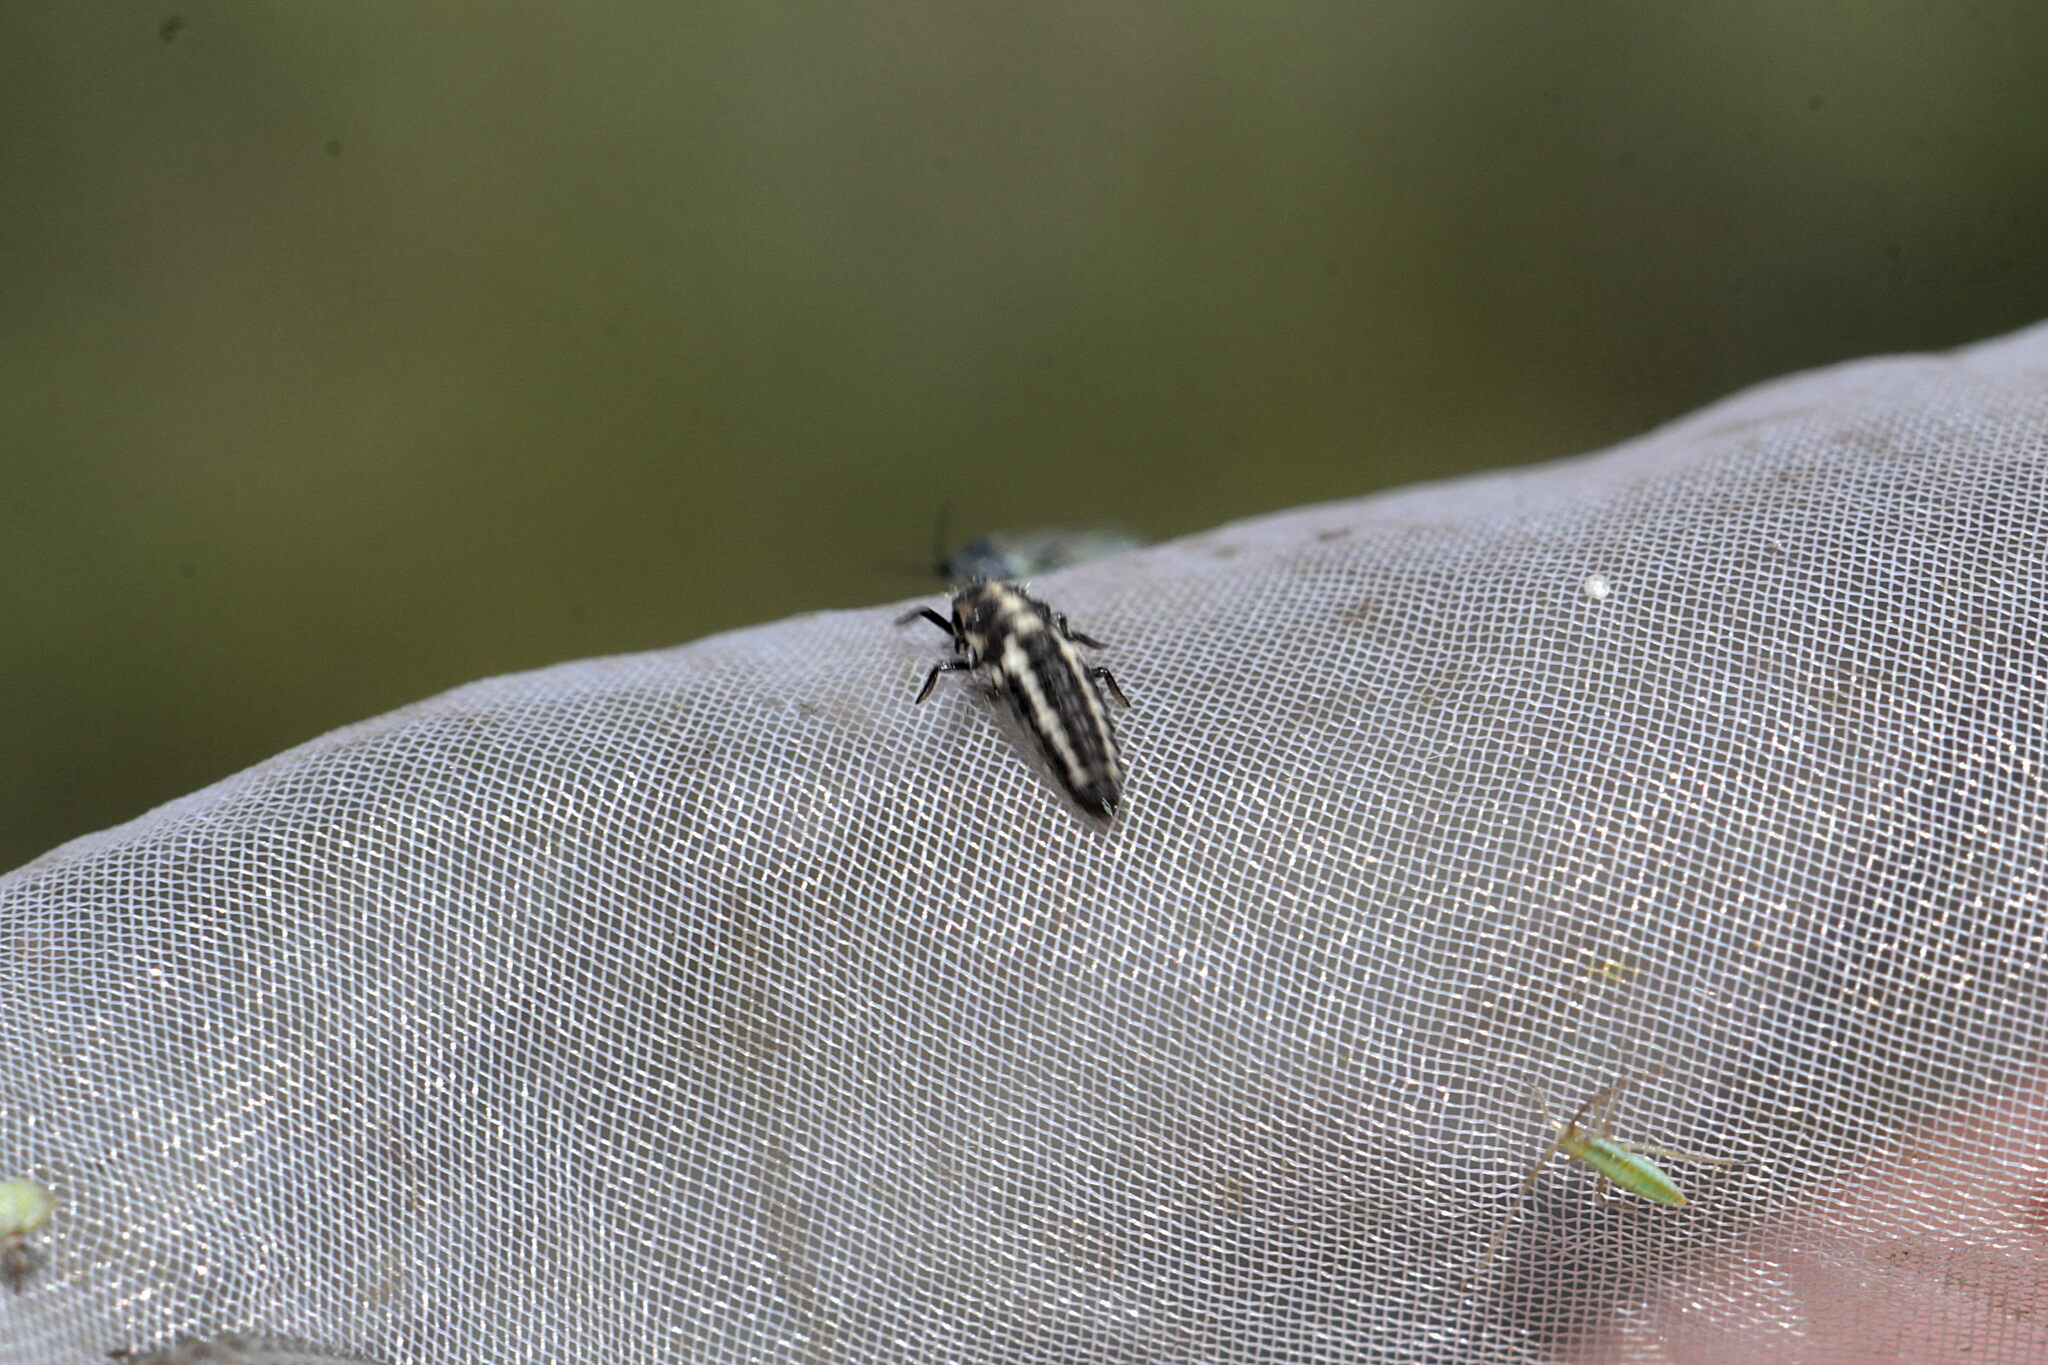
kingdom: Animalia
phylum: Arthropoda
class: Insecta
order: Coleoptera
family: Coccinellidae
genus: Coccinula
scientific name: Coccinula quatuordecimpustulata
